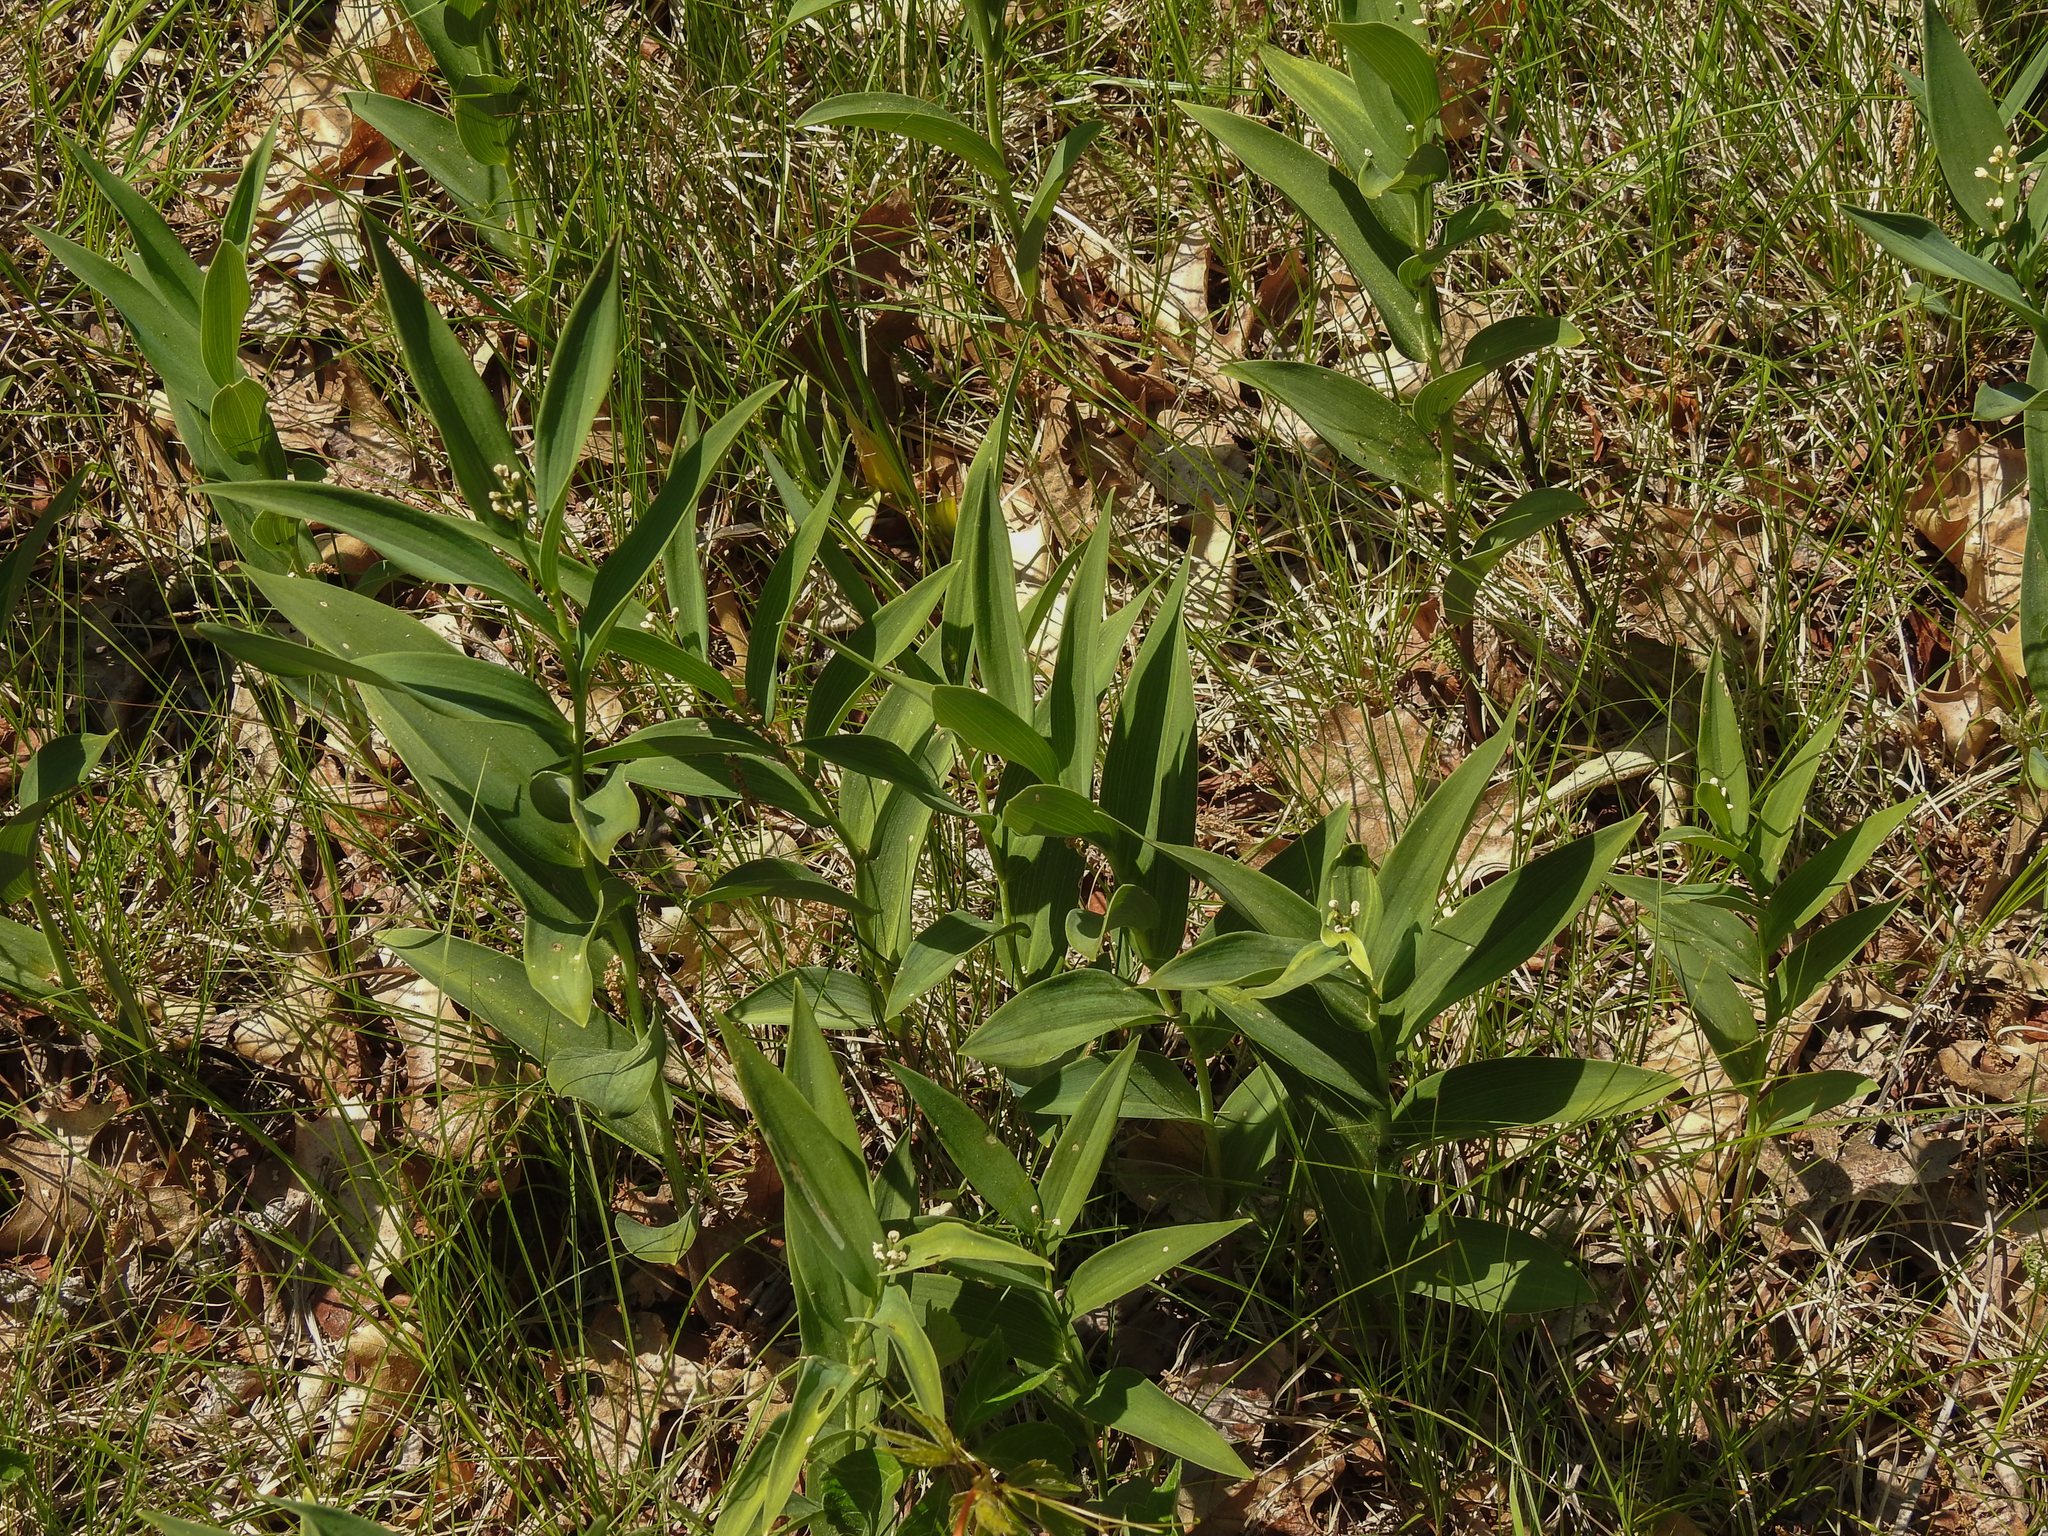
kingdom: Plantae
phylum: Tracheophyta
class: Liliopsida
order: Asparagales
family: Asparagaceae
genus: Maianthemum
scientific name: Maianthemum stellatum
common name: Little false solomon's seal
